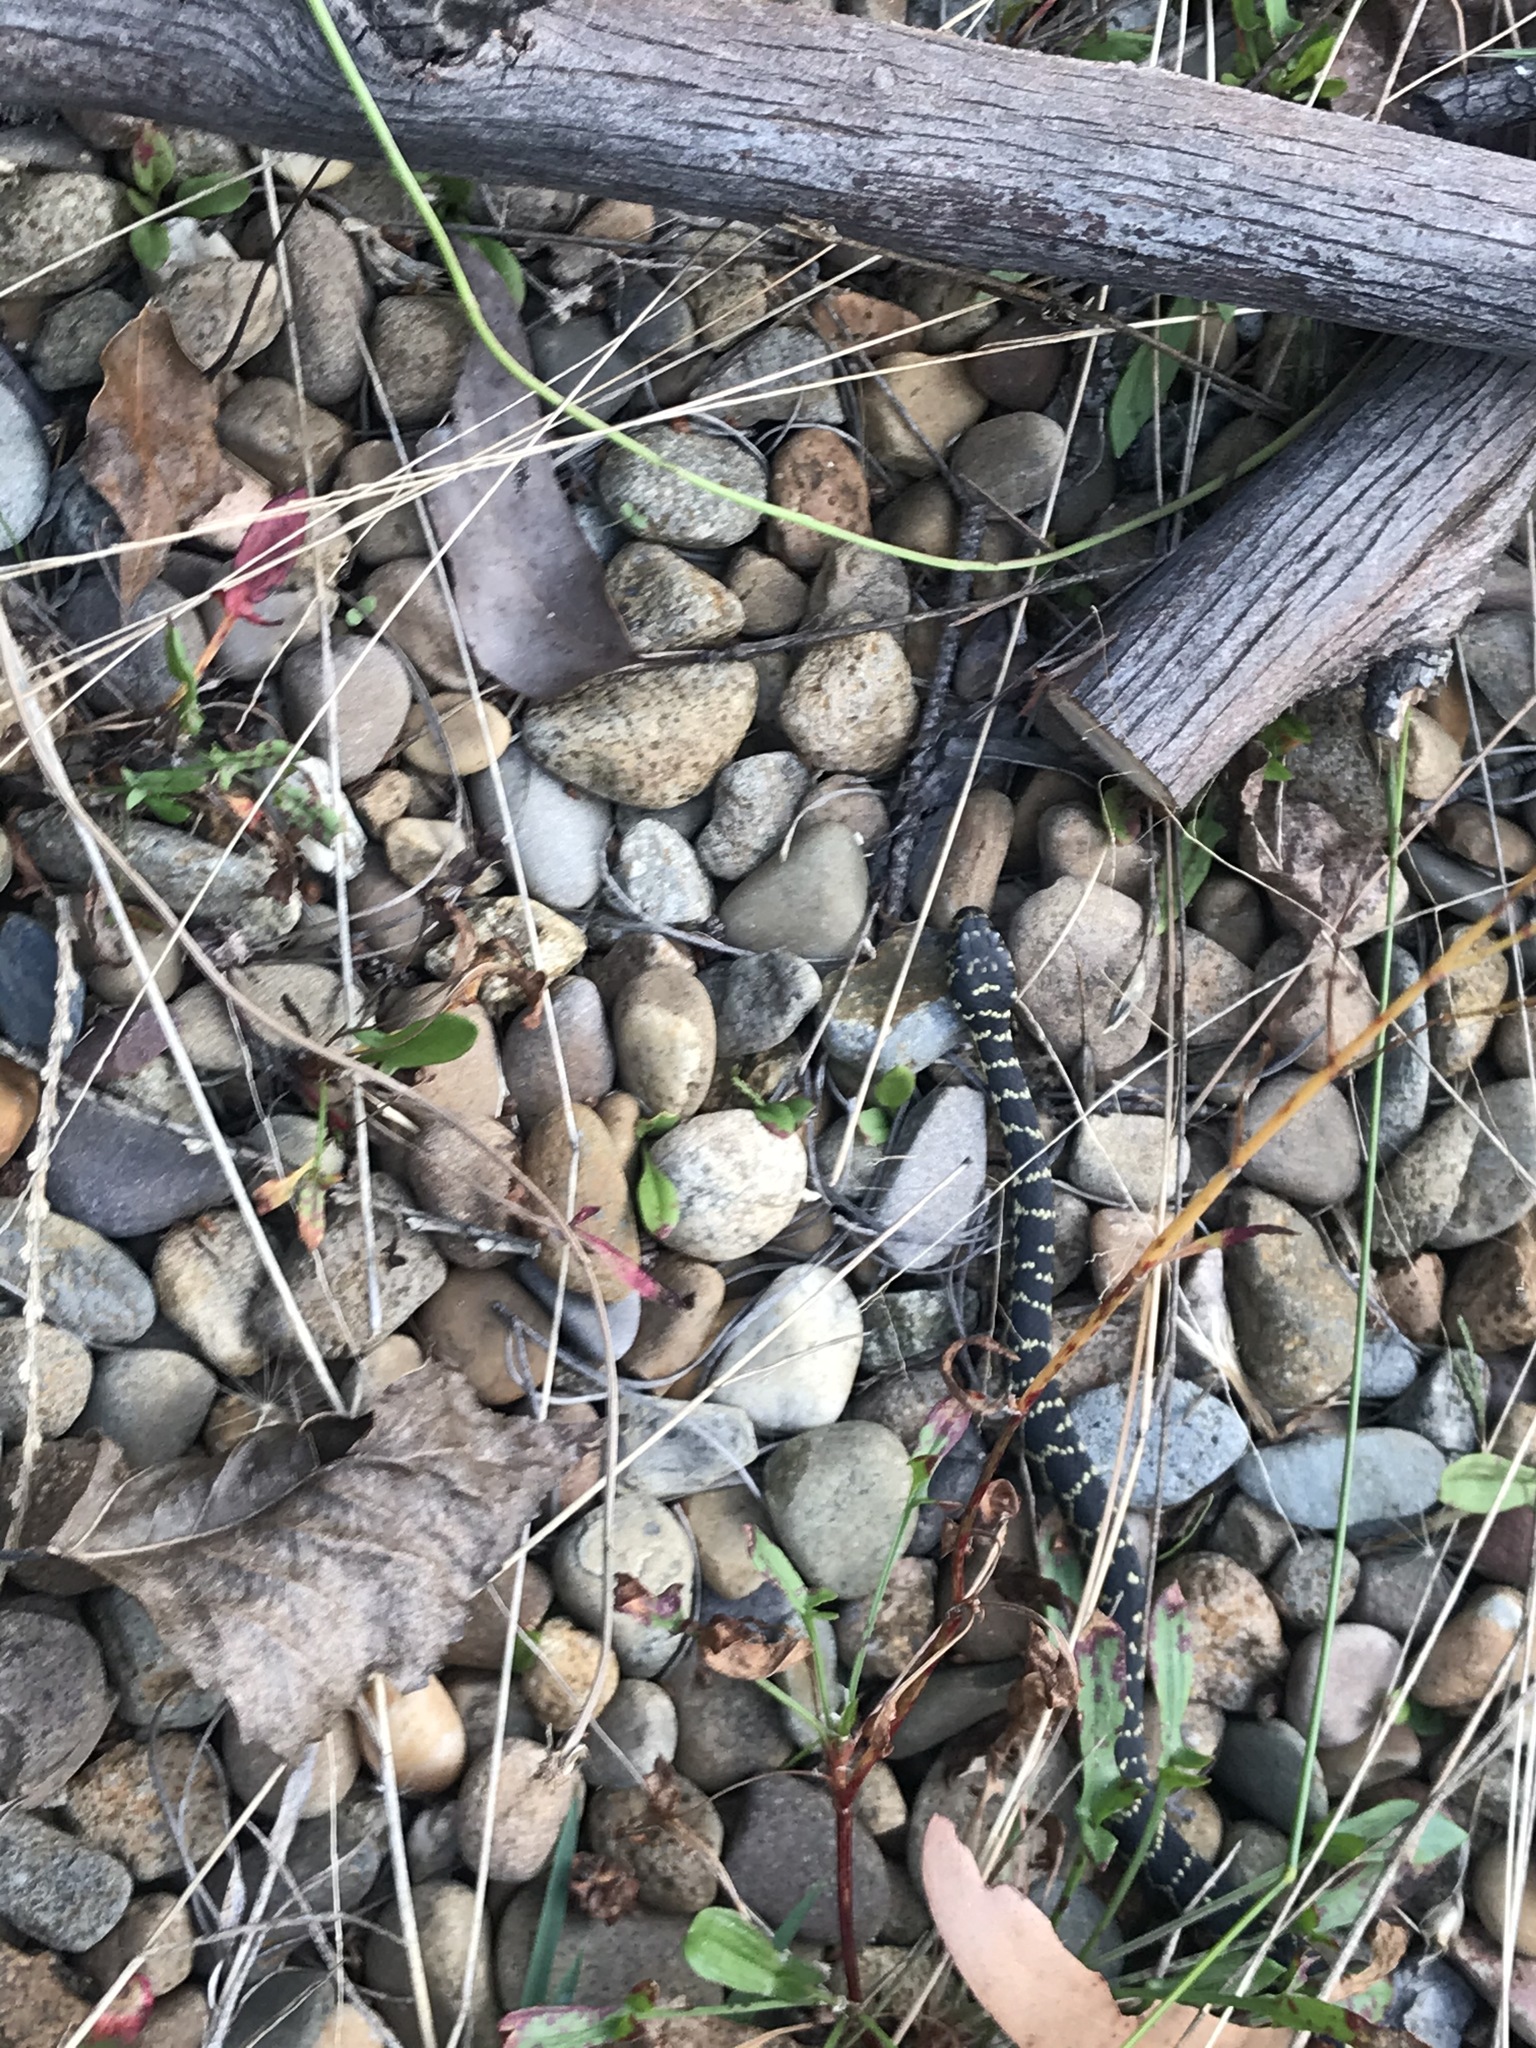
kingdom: Animalia
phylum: Chordata
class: Squamata
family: Elapidae
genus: Hoplocephalus
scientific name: Hoplocephalus bungaroides
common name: Broad-headed snake
